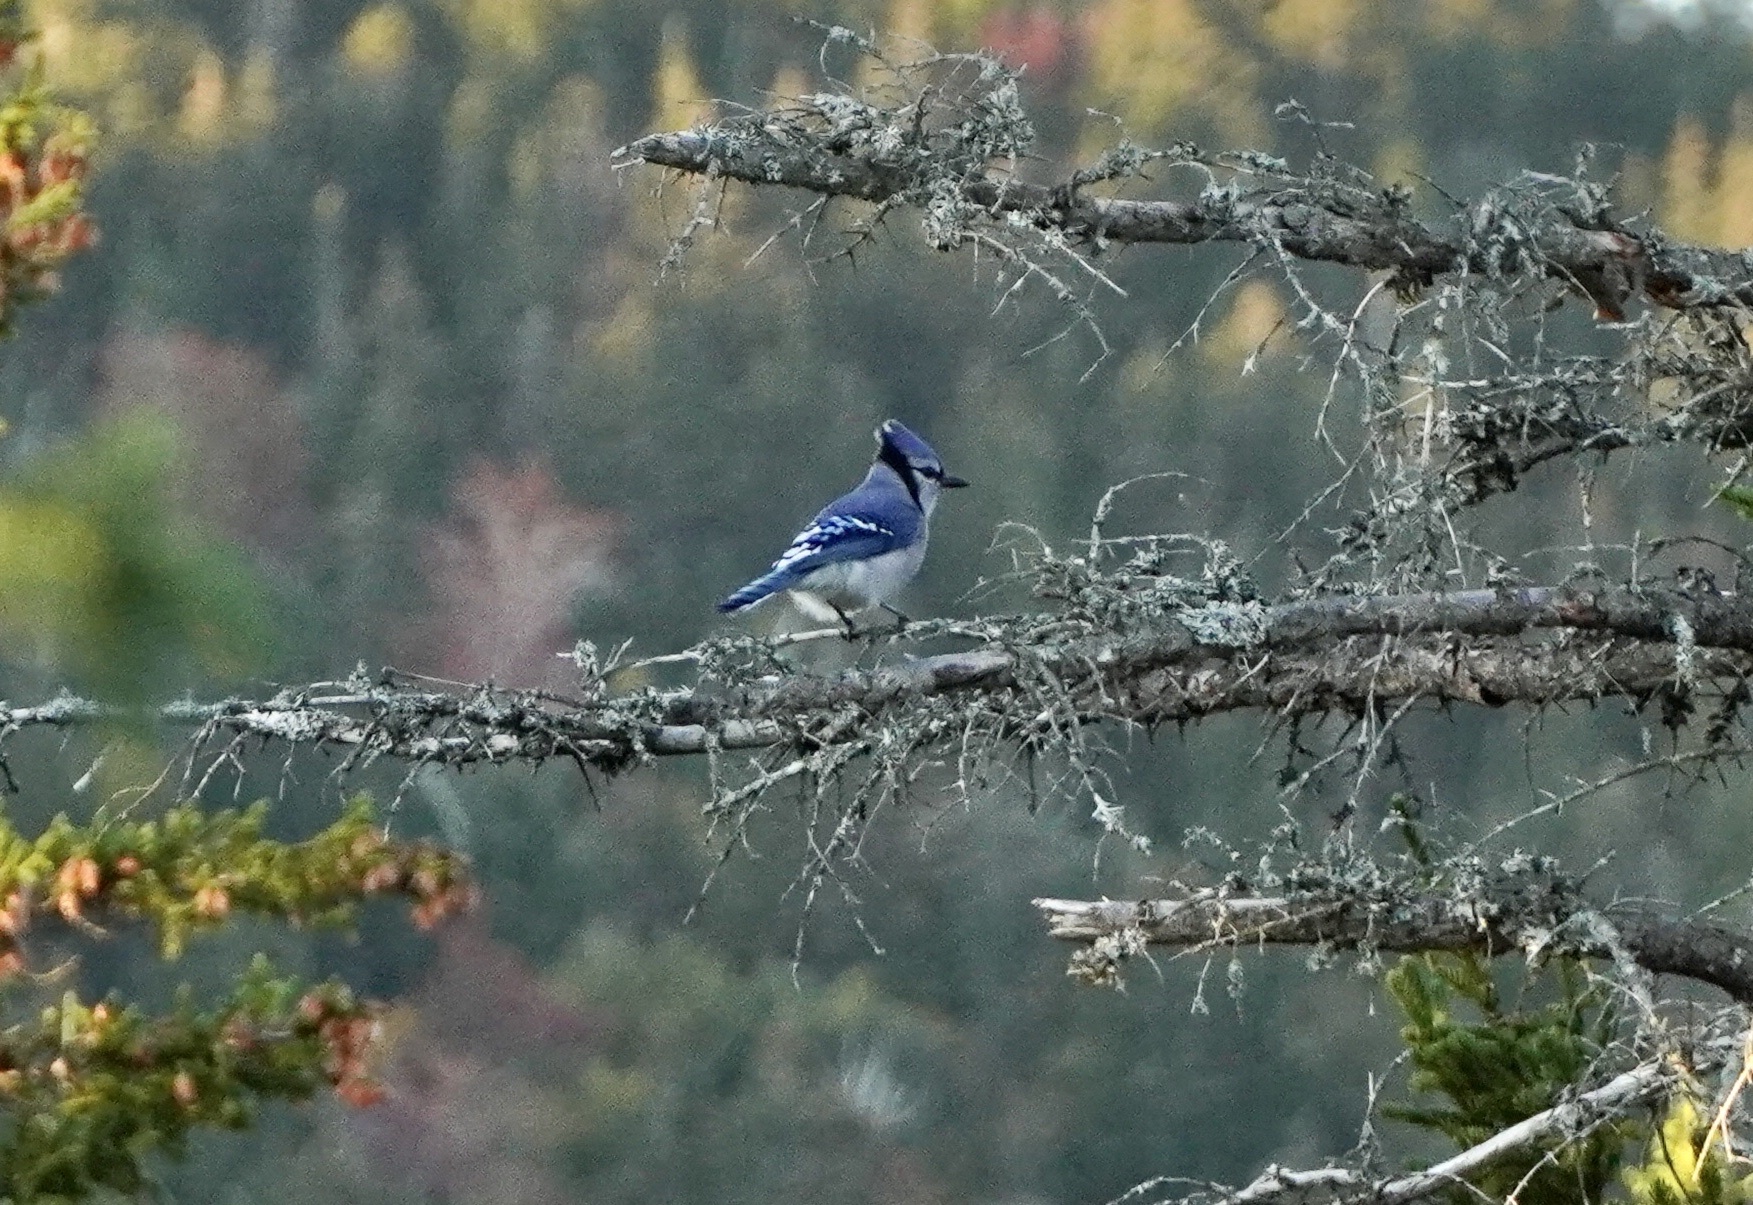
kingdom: Animalia
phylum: Chordata
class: Aves
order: Passeriformes
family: Corvidae
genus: Cyanocitta
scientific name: Cyanocitta cristata
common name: Blue jay
